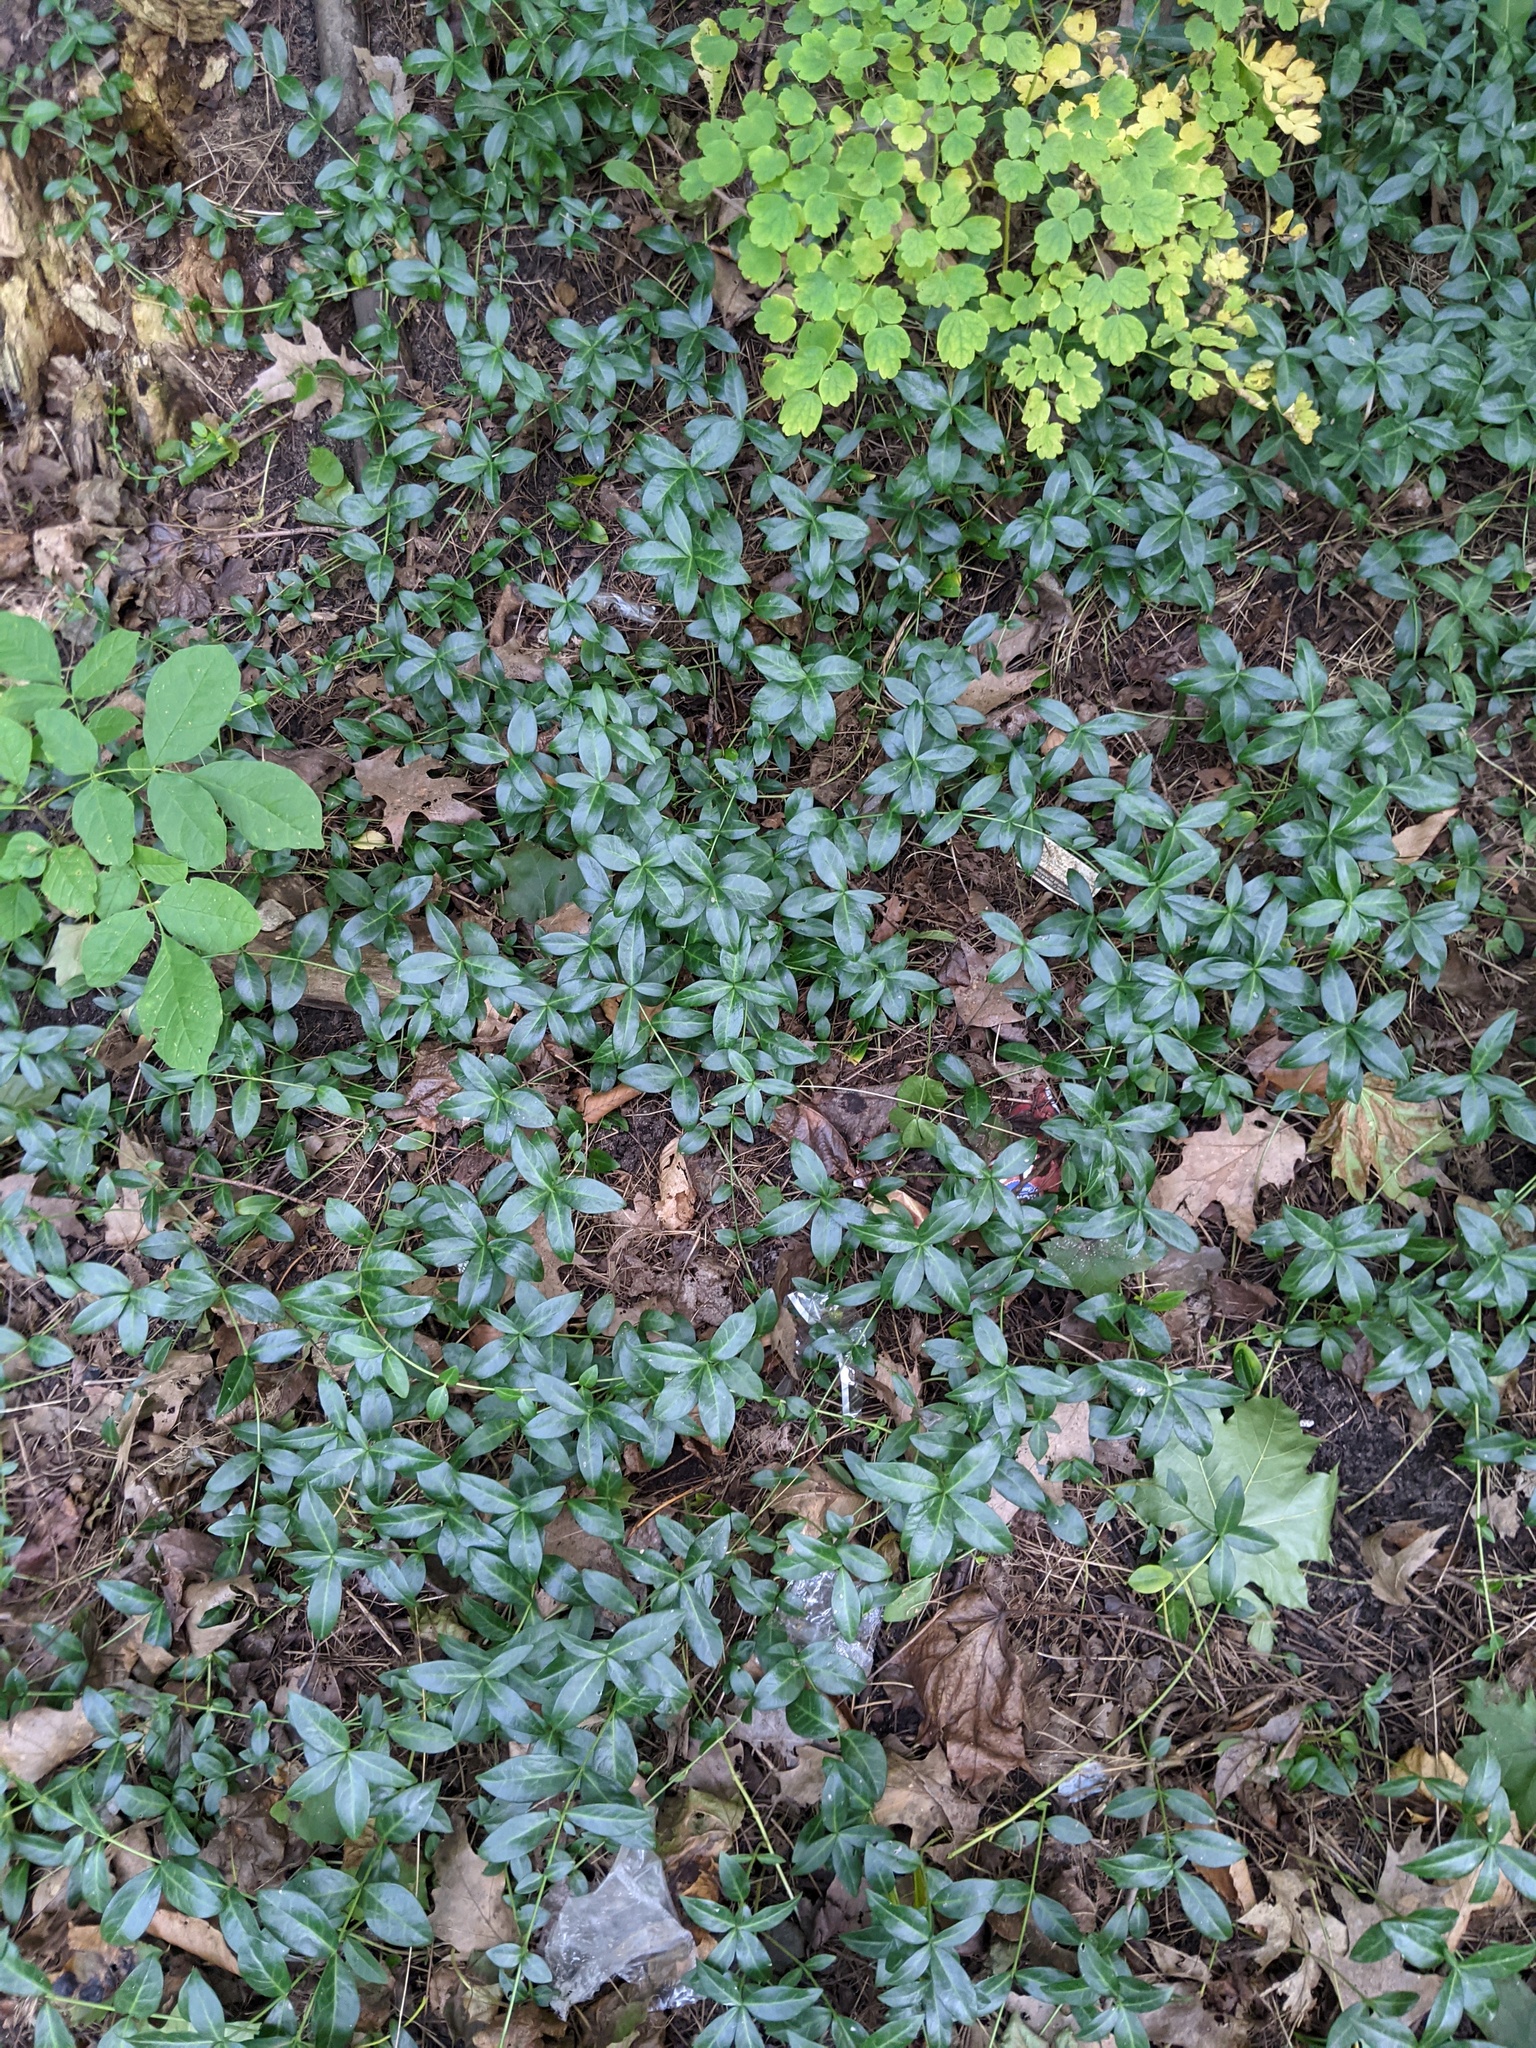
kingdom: Plantae
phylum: Tracheophyta
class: Magnoliopsida
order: Gentianales
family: Apocynaceae
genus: Vinca
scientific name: Vinca minor
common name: Lesser periwinkle
